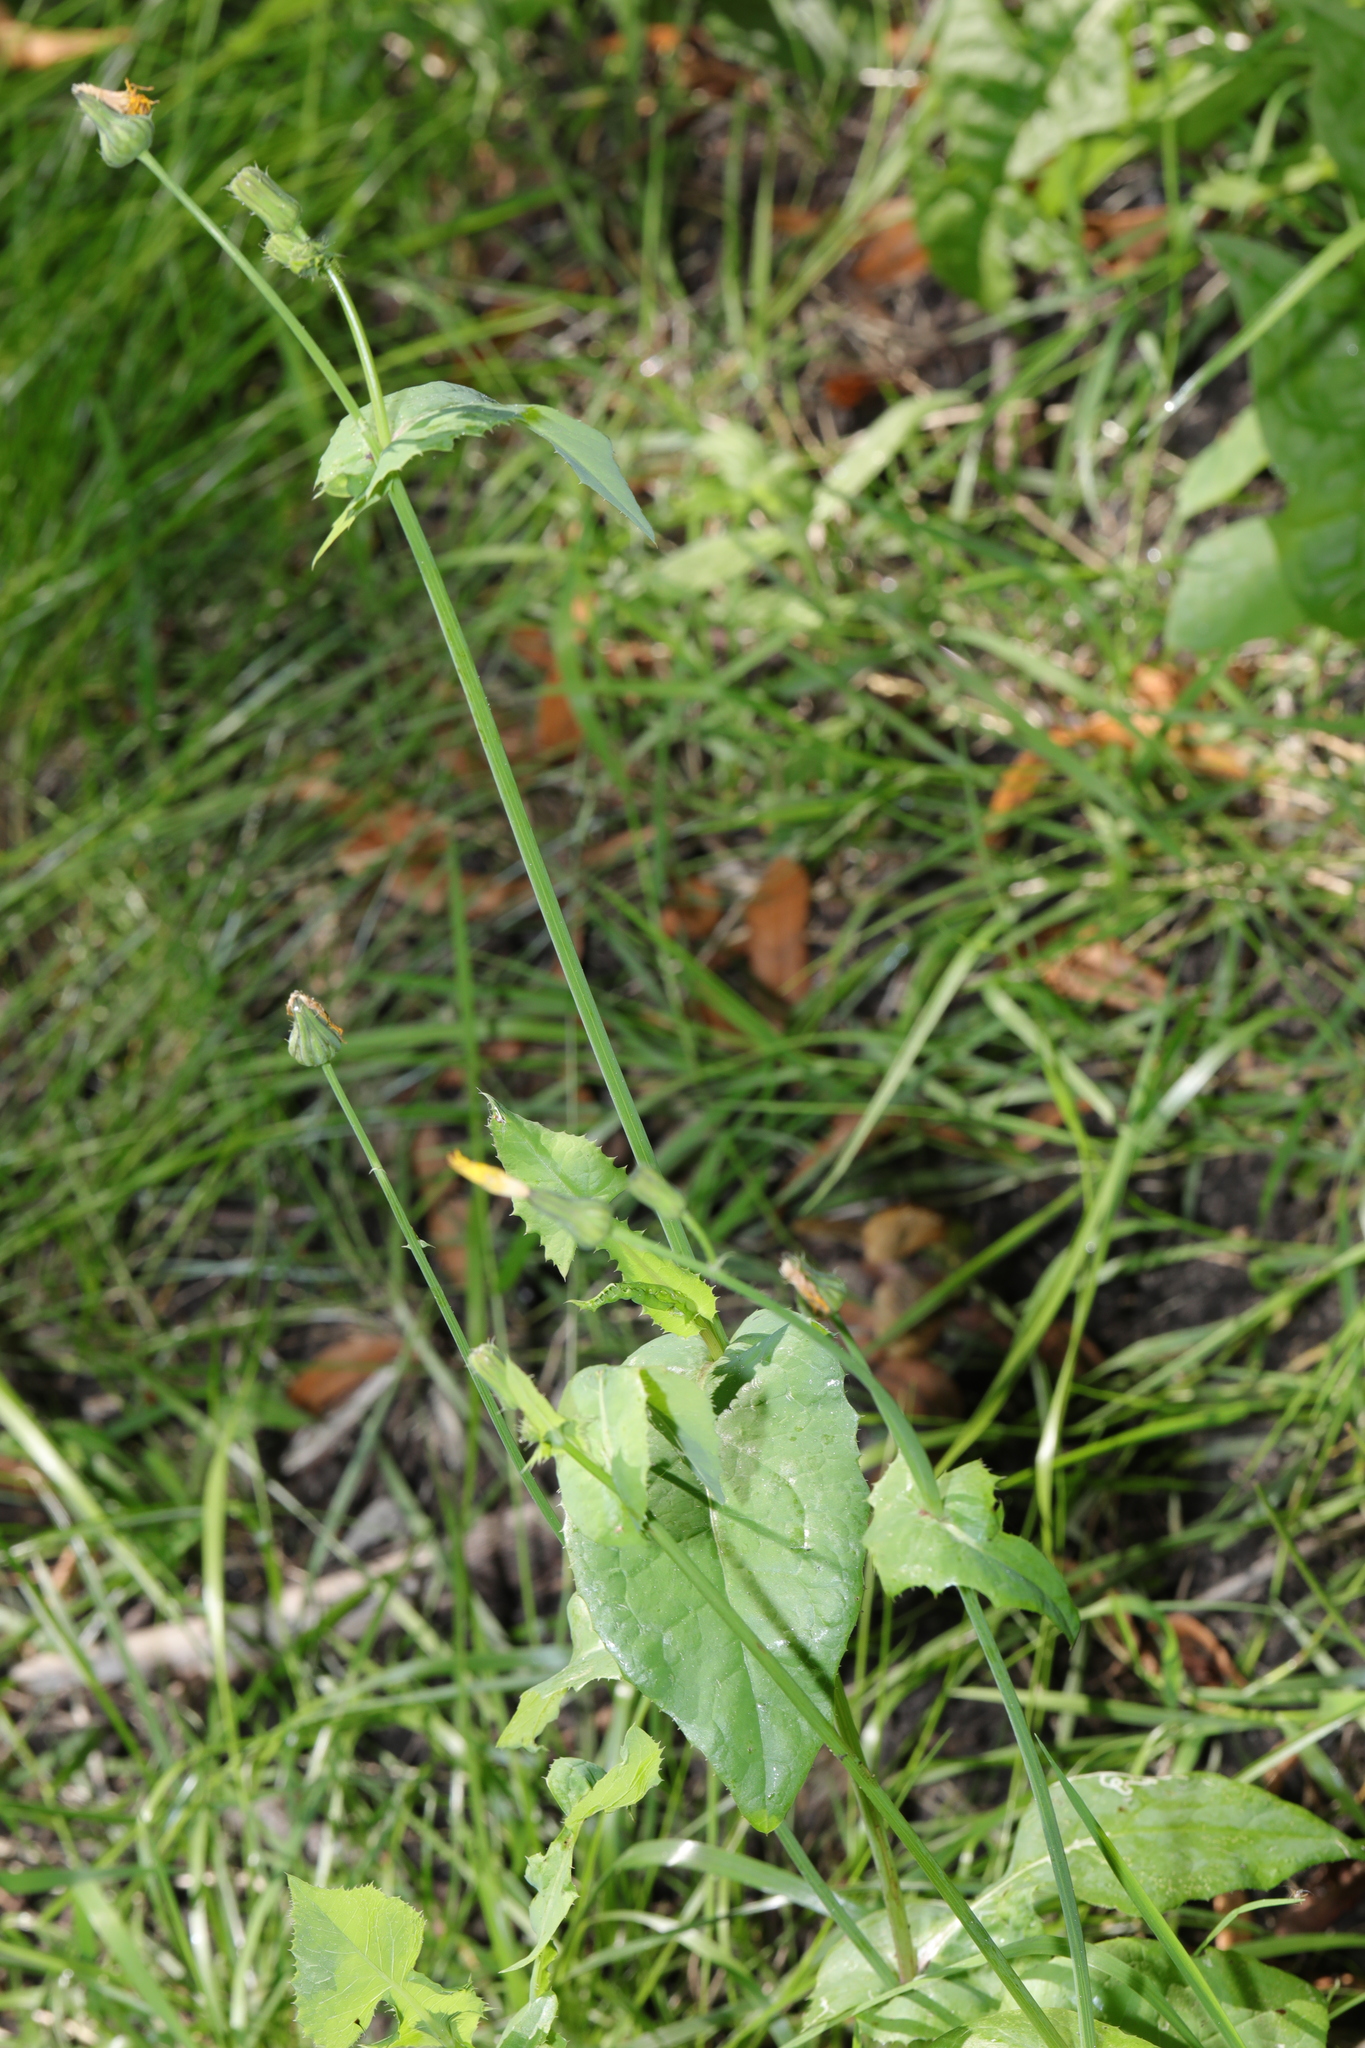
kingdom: Plantae
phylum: Tracheophyta
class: Magnoliopsida
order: Asterales
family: Asteraceae
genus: Sonchus
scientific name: Sonchus oleraceus
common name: Common sowthistle
